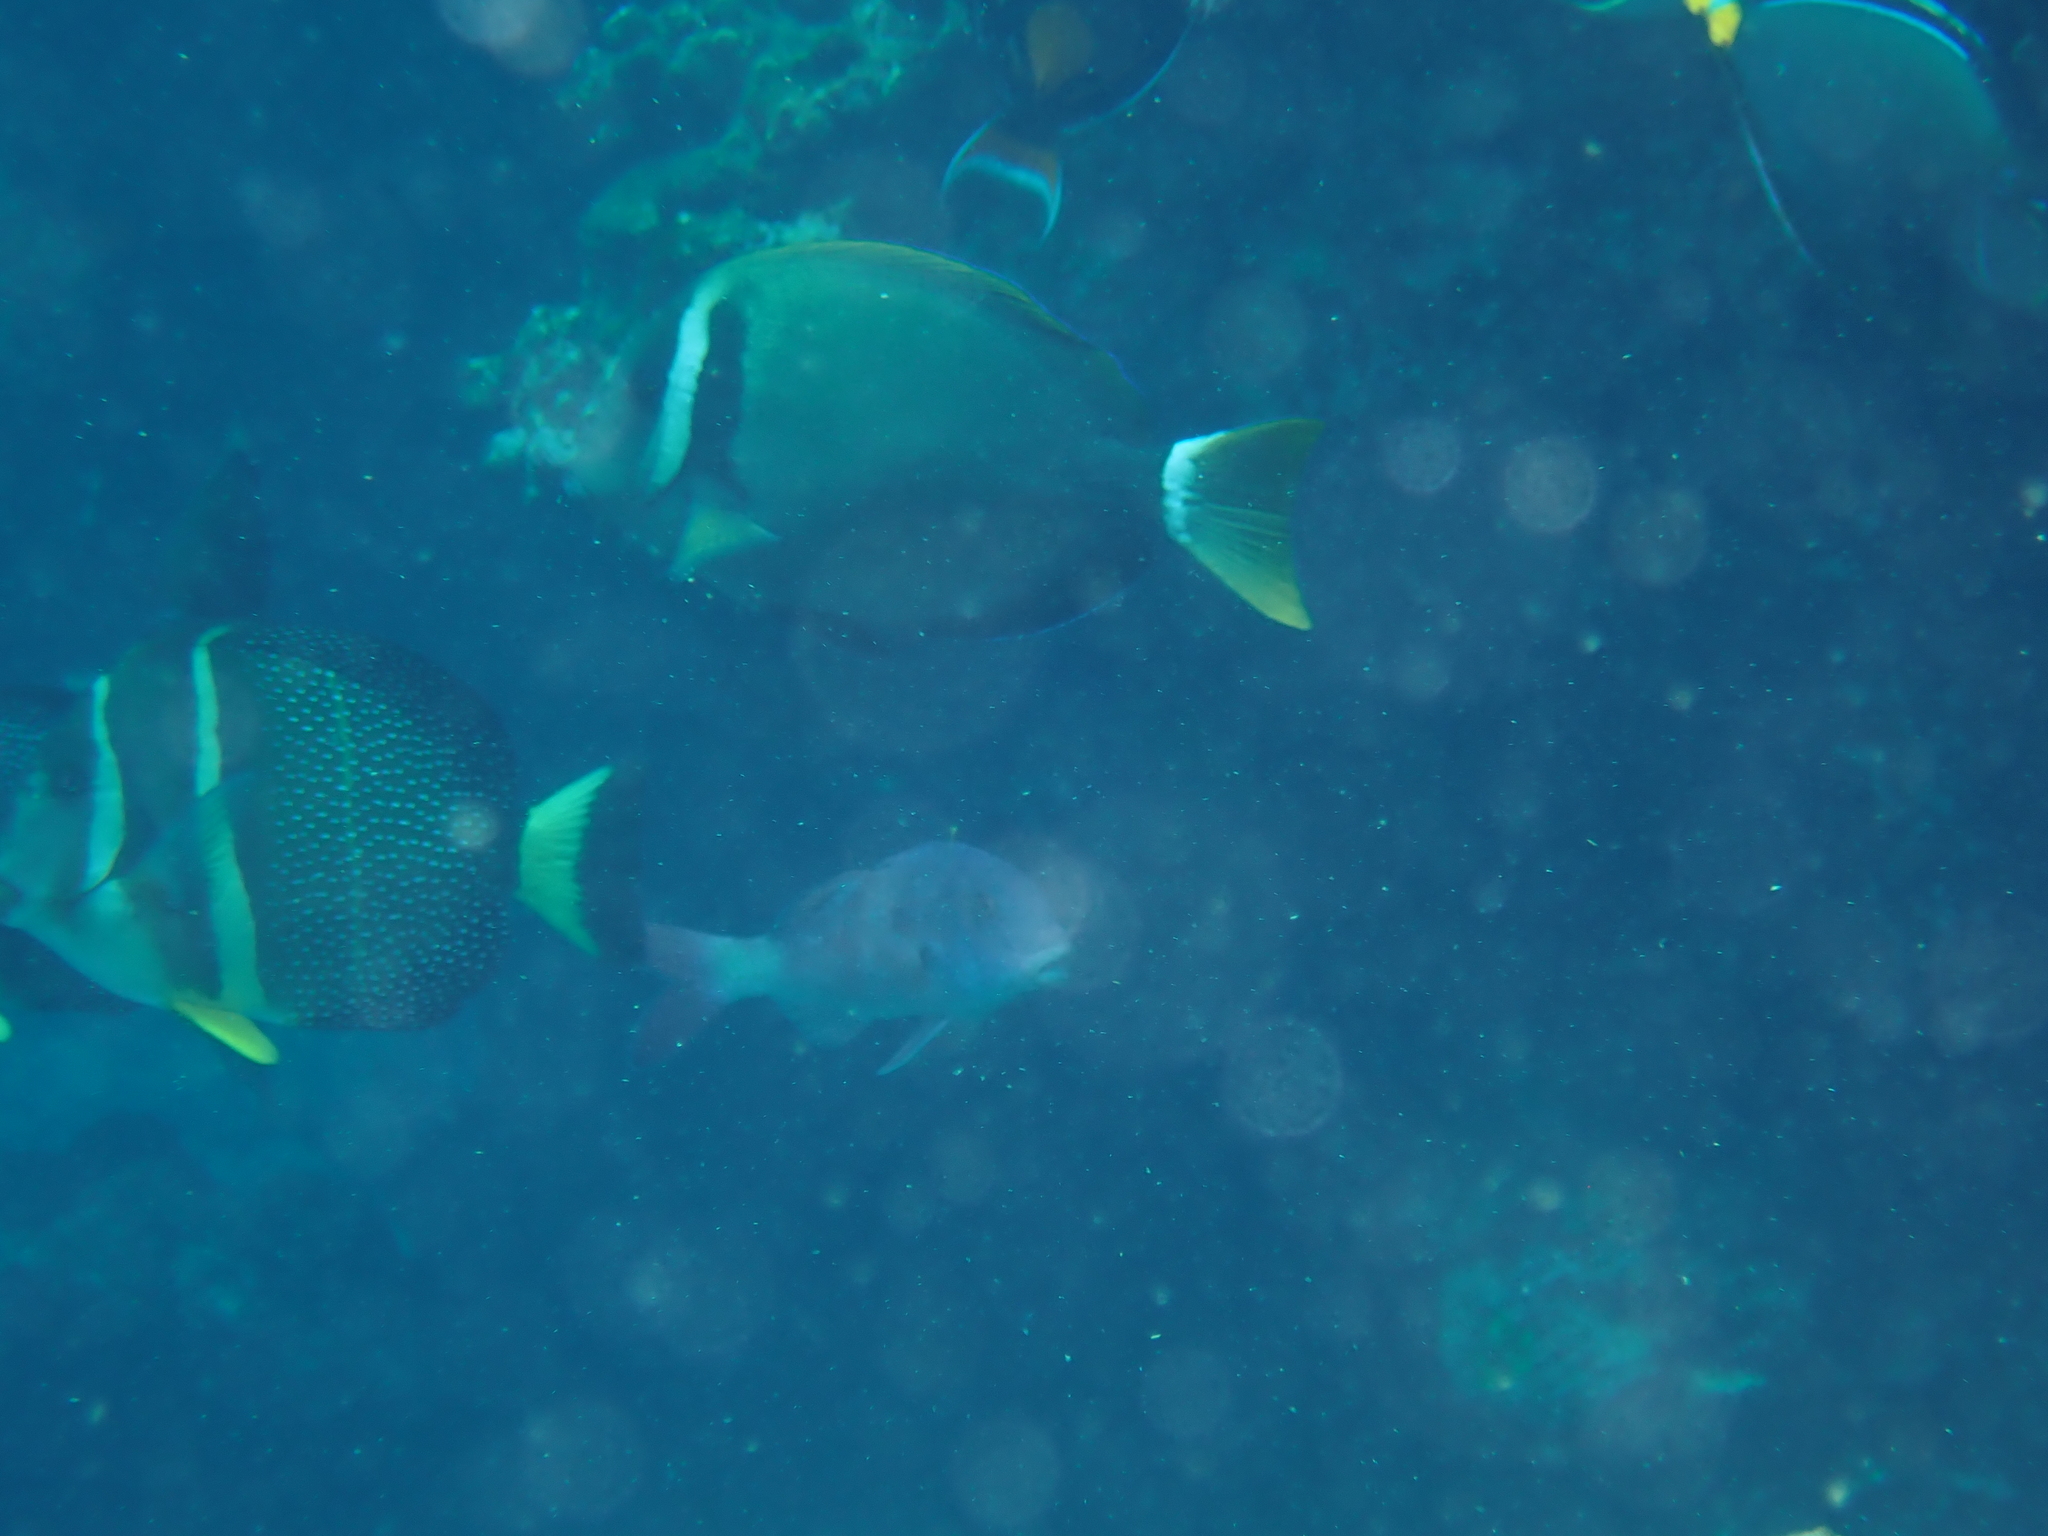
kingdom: Animalia
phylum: Chordata
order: Perciformes
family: Acanthuridae
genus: Acanthurus
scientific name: Acanthurus leucopareius
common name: Head-band surgeonfish
